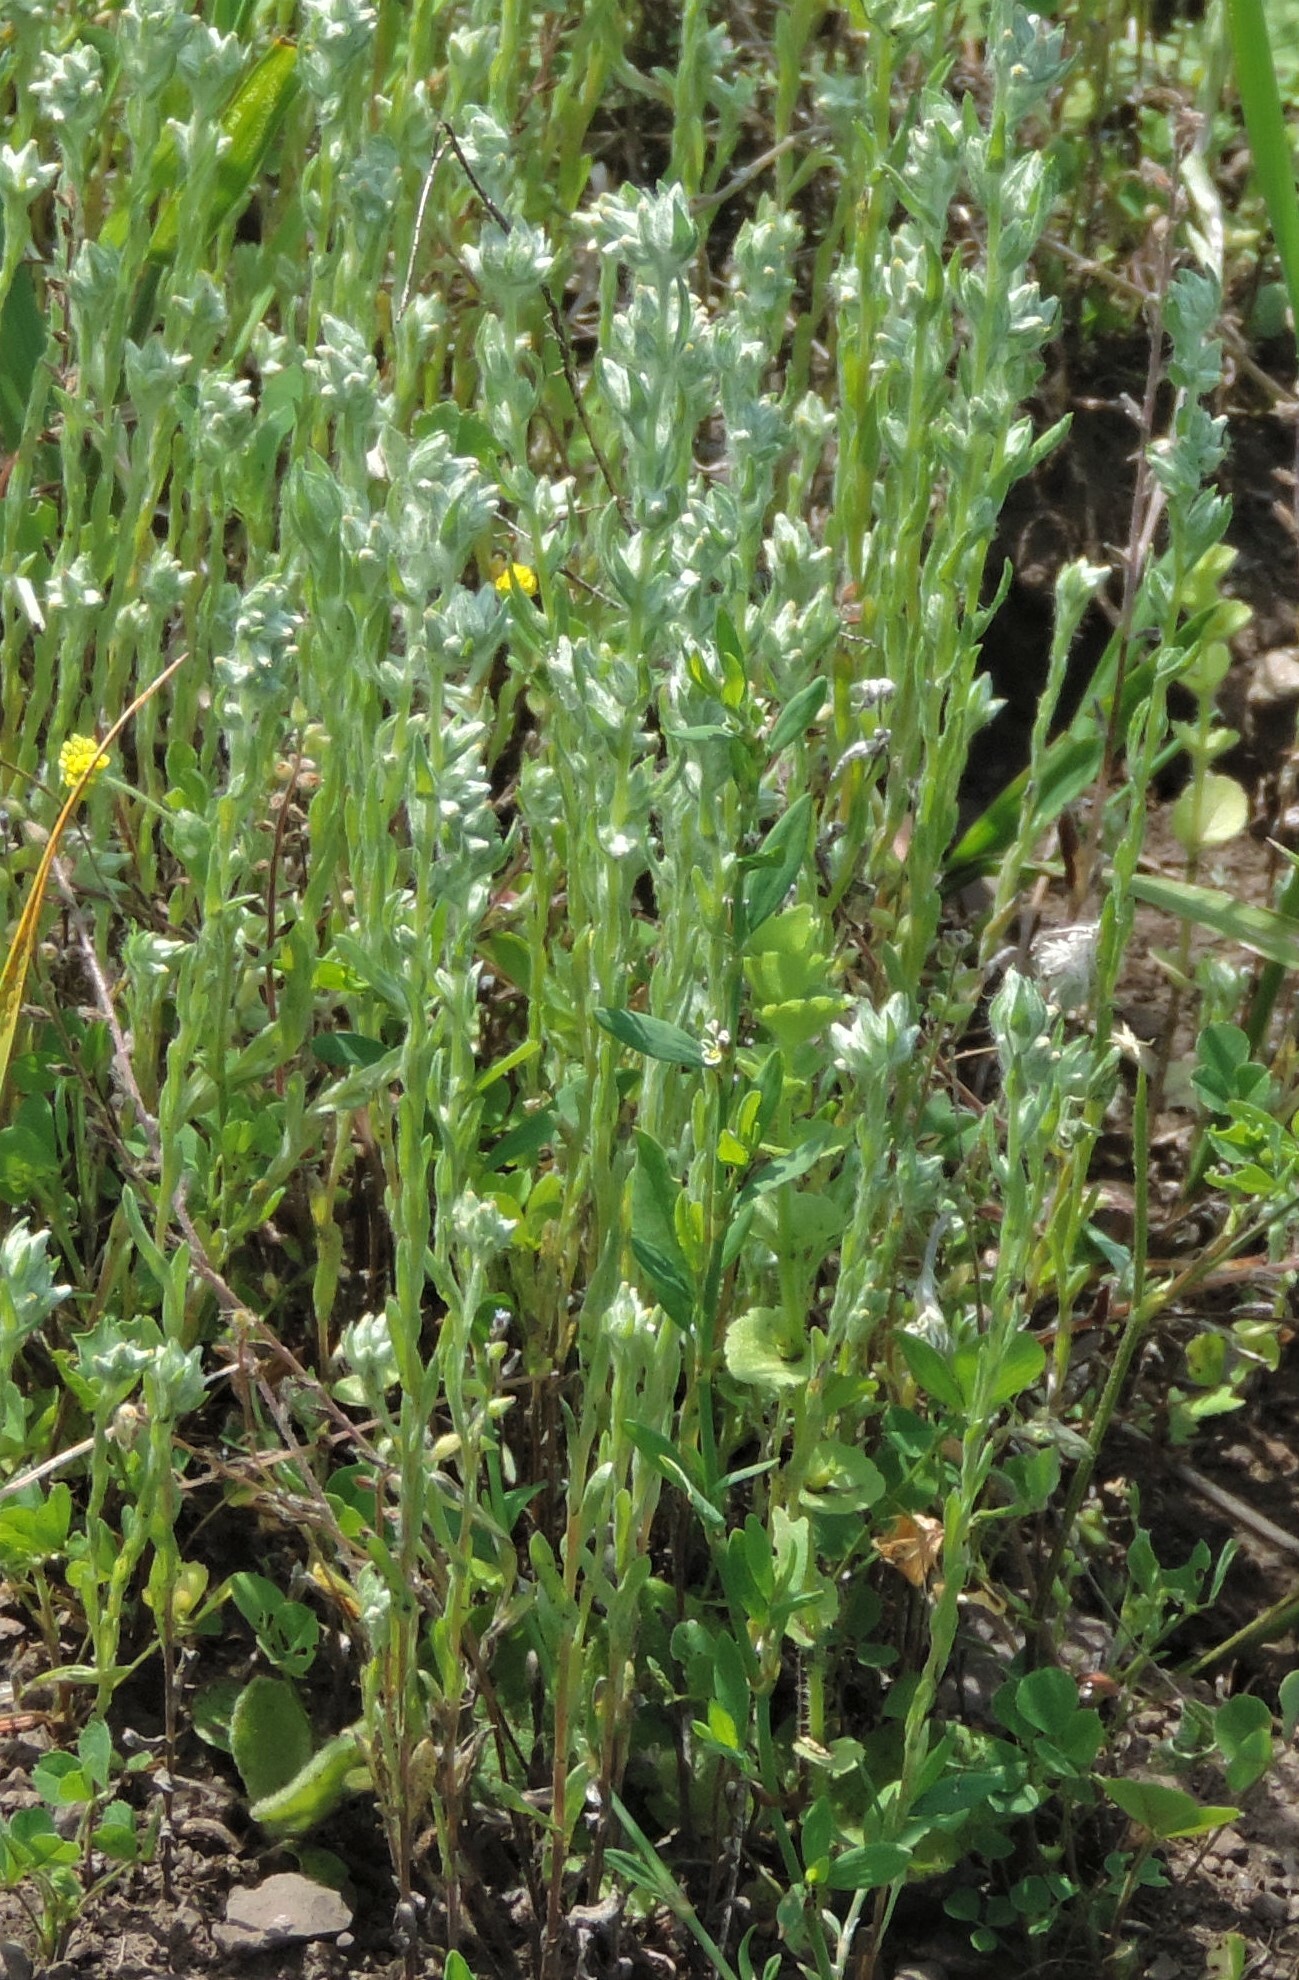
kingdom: Plantae
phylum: Tracheophyta
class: Magnoliopsida
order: Asterales
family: Asteraceae
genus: Filago
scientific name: Filago arvensis
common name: Field cudweed
